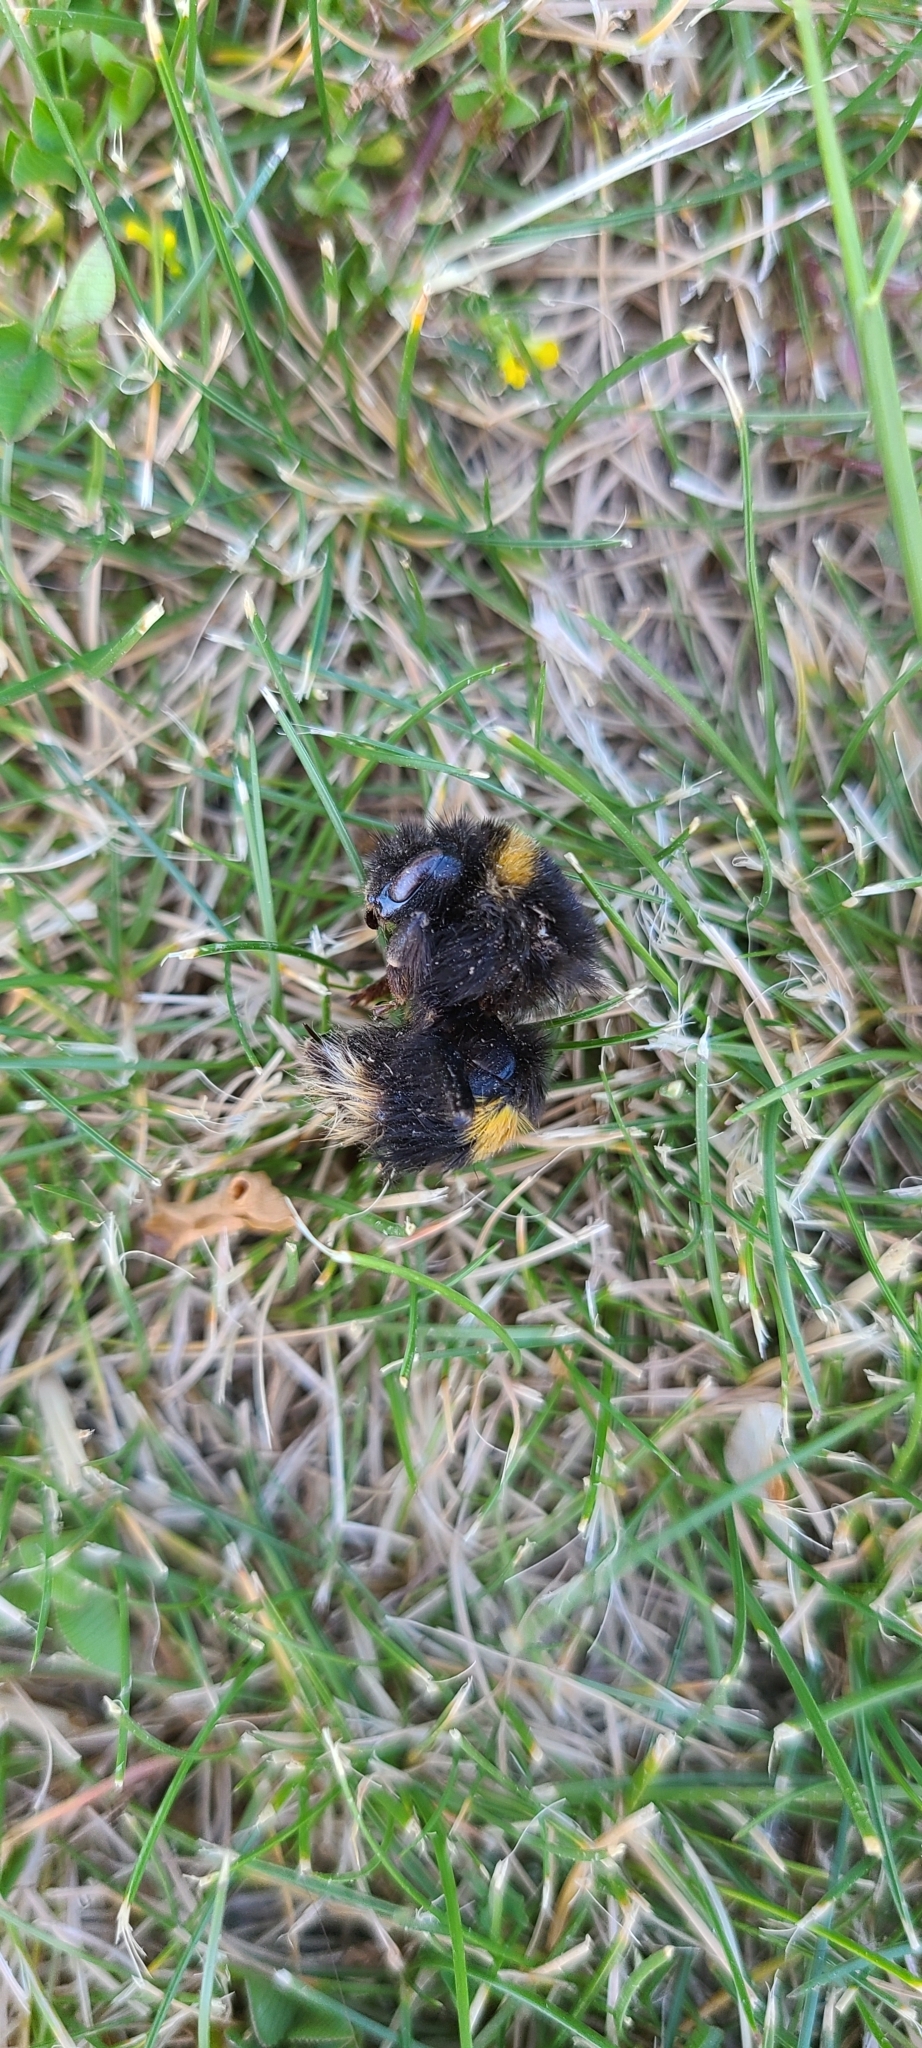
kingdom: Animalia
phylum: Arthropoda
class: Insecta
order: Hymenoptera
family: Apidae
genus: Bombus
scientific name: Bombus terrestris
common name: Buff-tailed bumblebee
